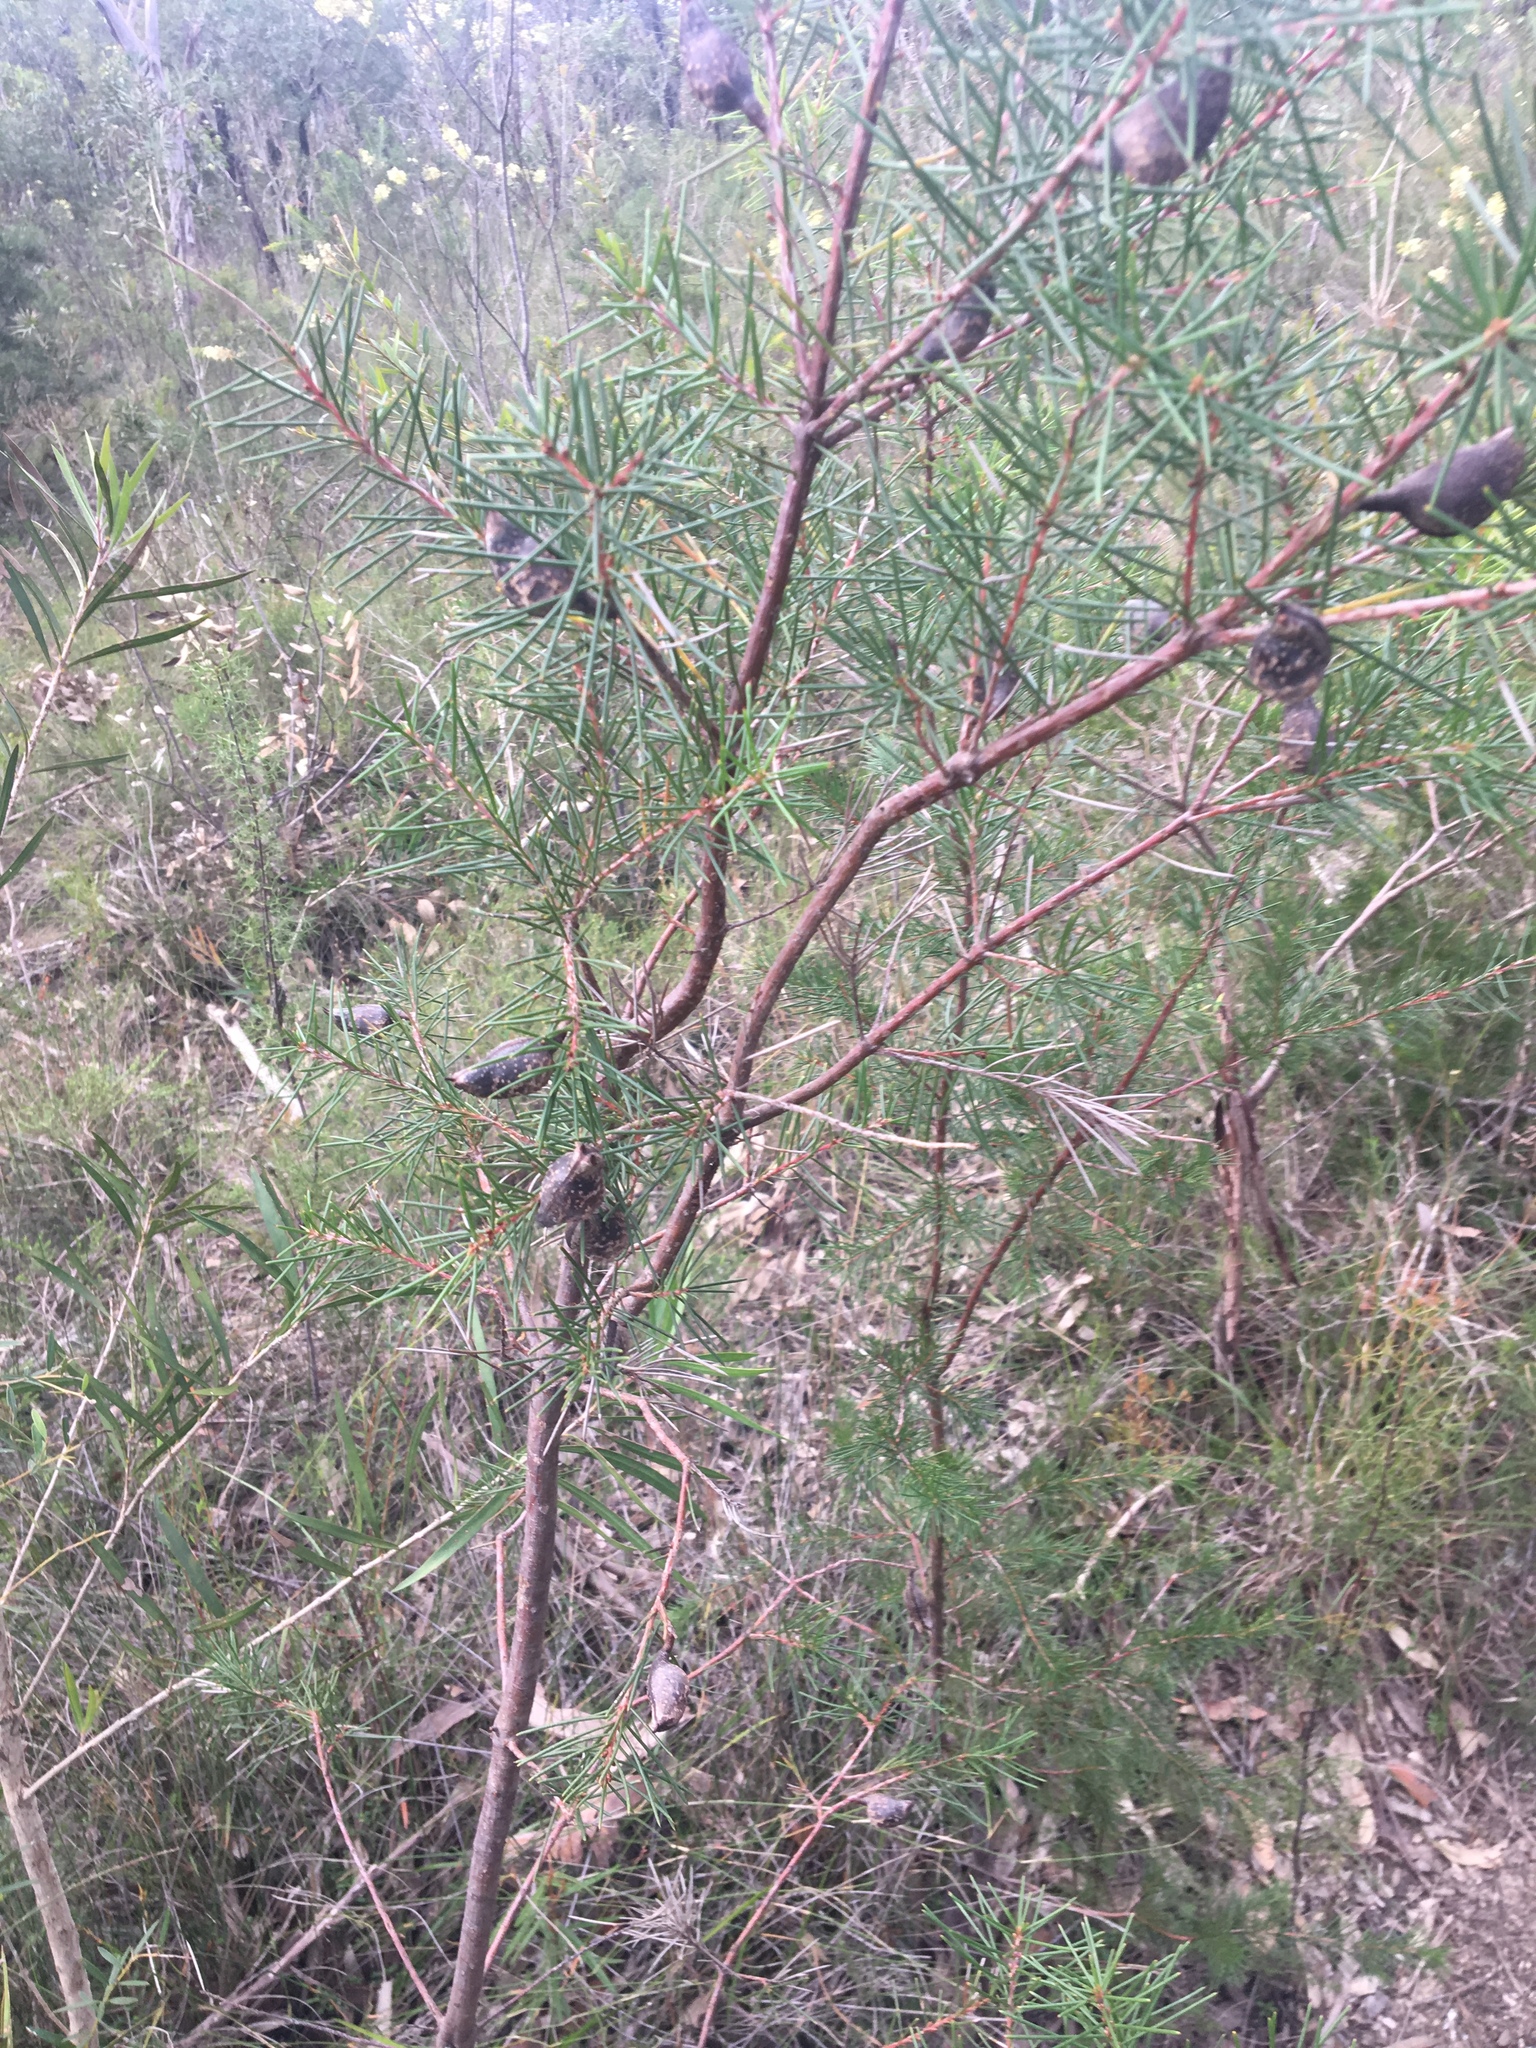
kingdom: Plantae
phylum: Tracheophyta
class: Magnoliopsida
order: Proteales
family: Proteaceae
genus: Hakea
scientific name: Hakea sericea
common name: Needle bush
